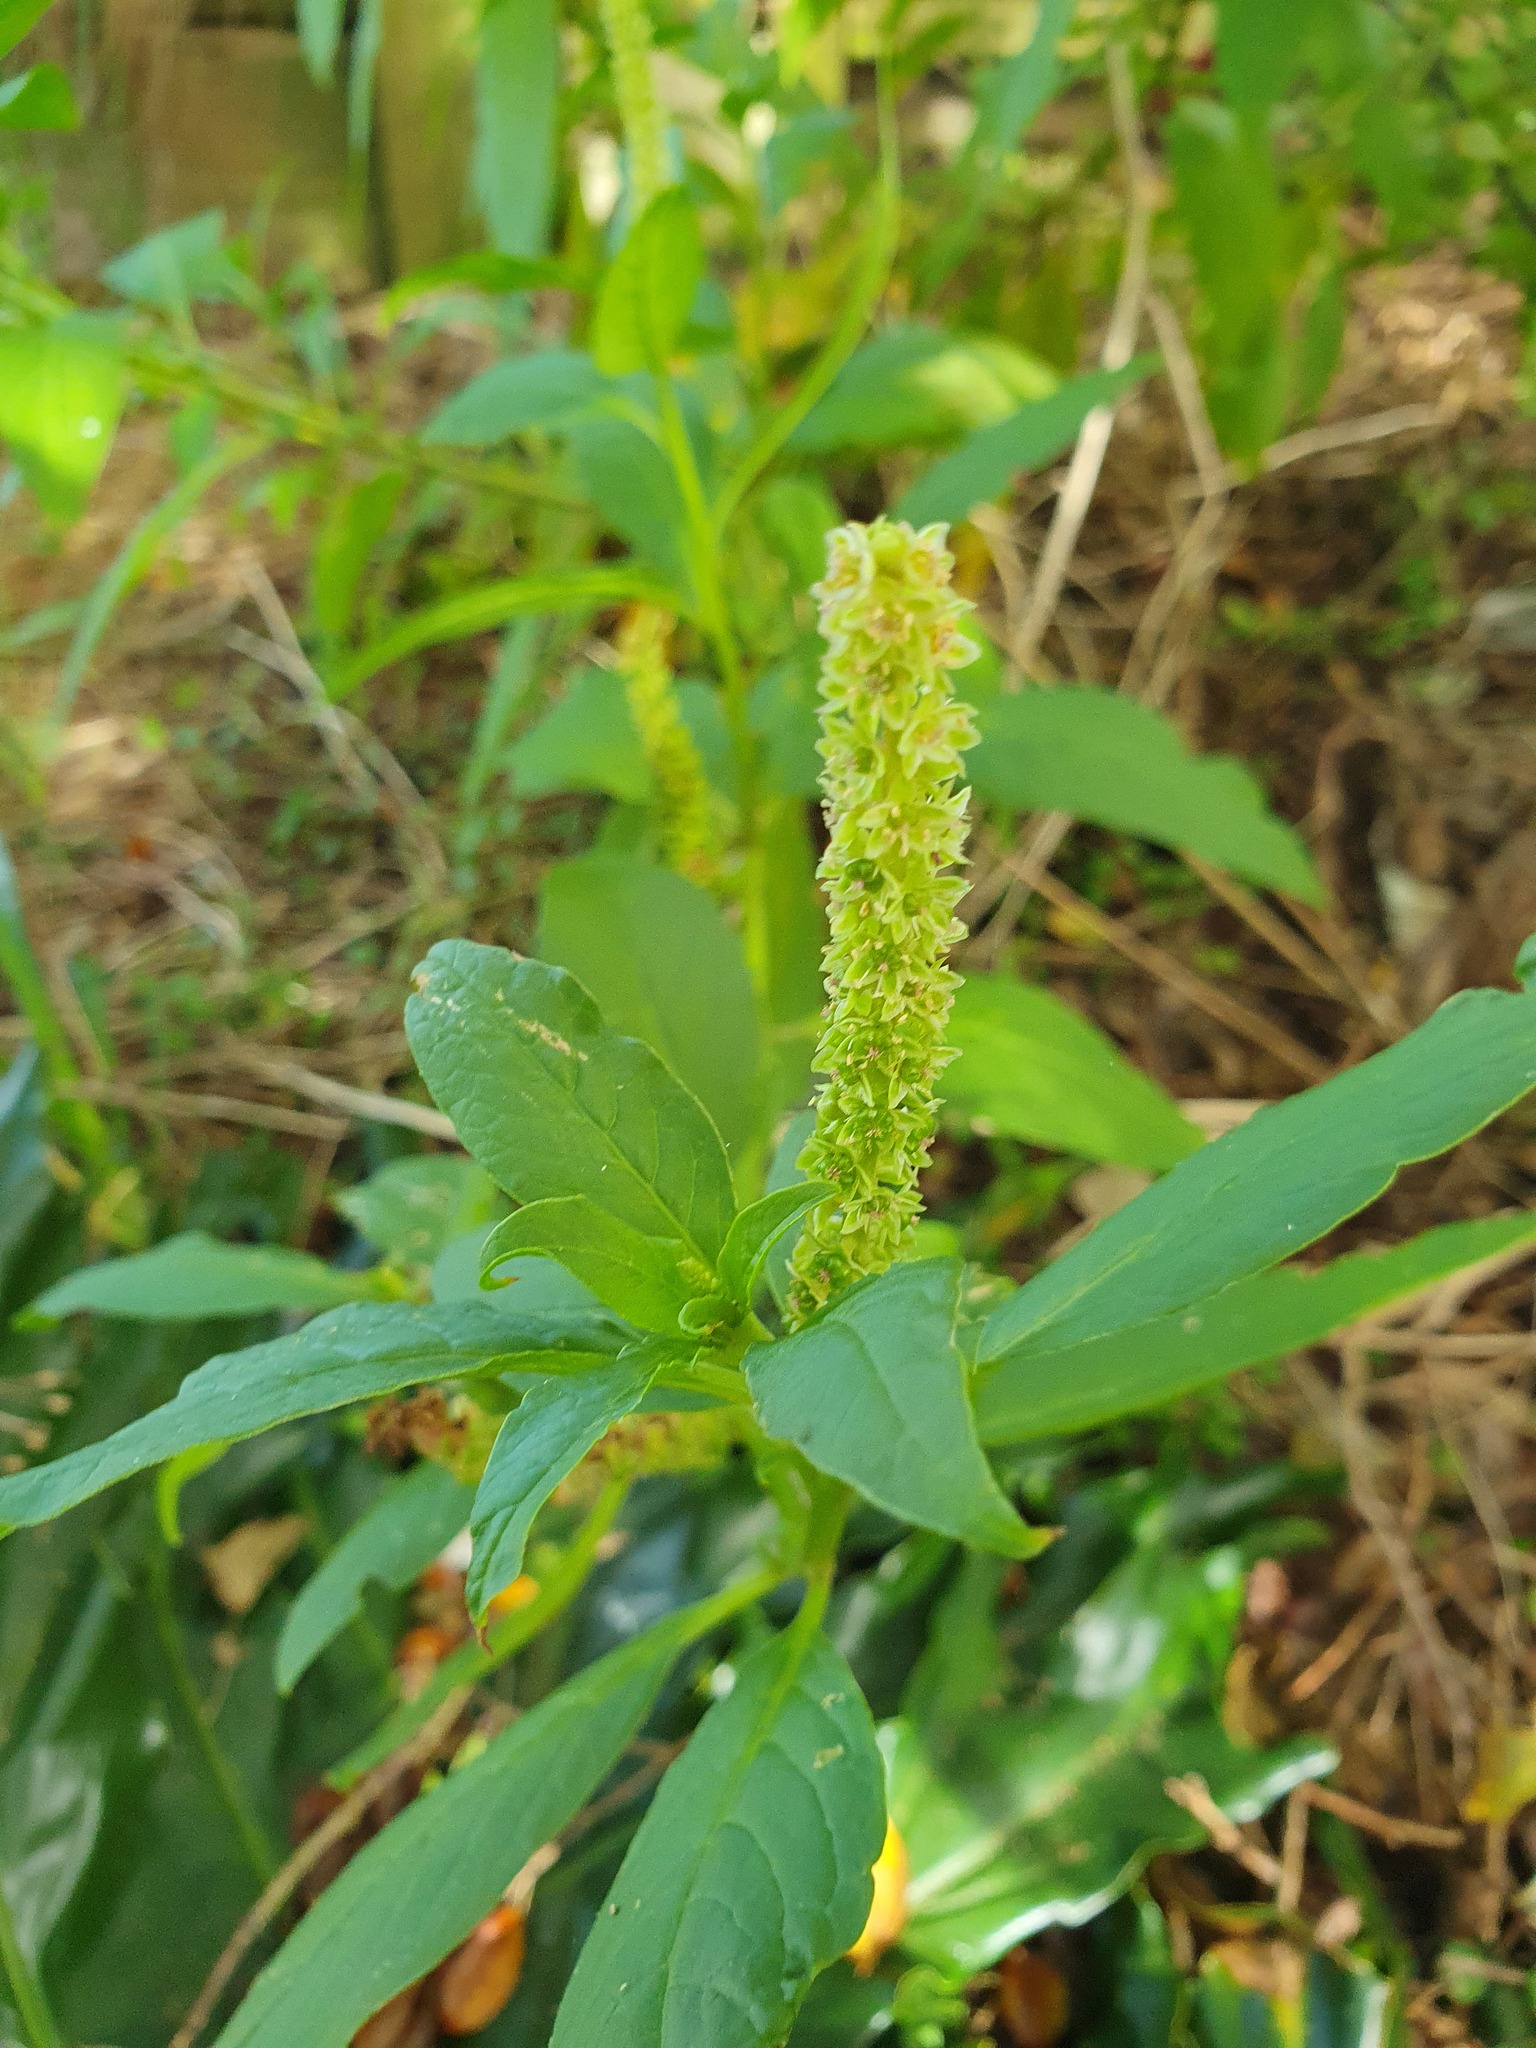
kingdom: Plantae
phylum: Tracheophyta
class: Magnoliopsida
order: Caryophyllales
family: Phytolaccaceae
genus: Phytolacca
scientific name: Phytolacca icosandra
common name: Button pokeweed
